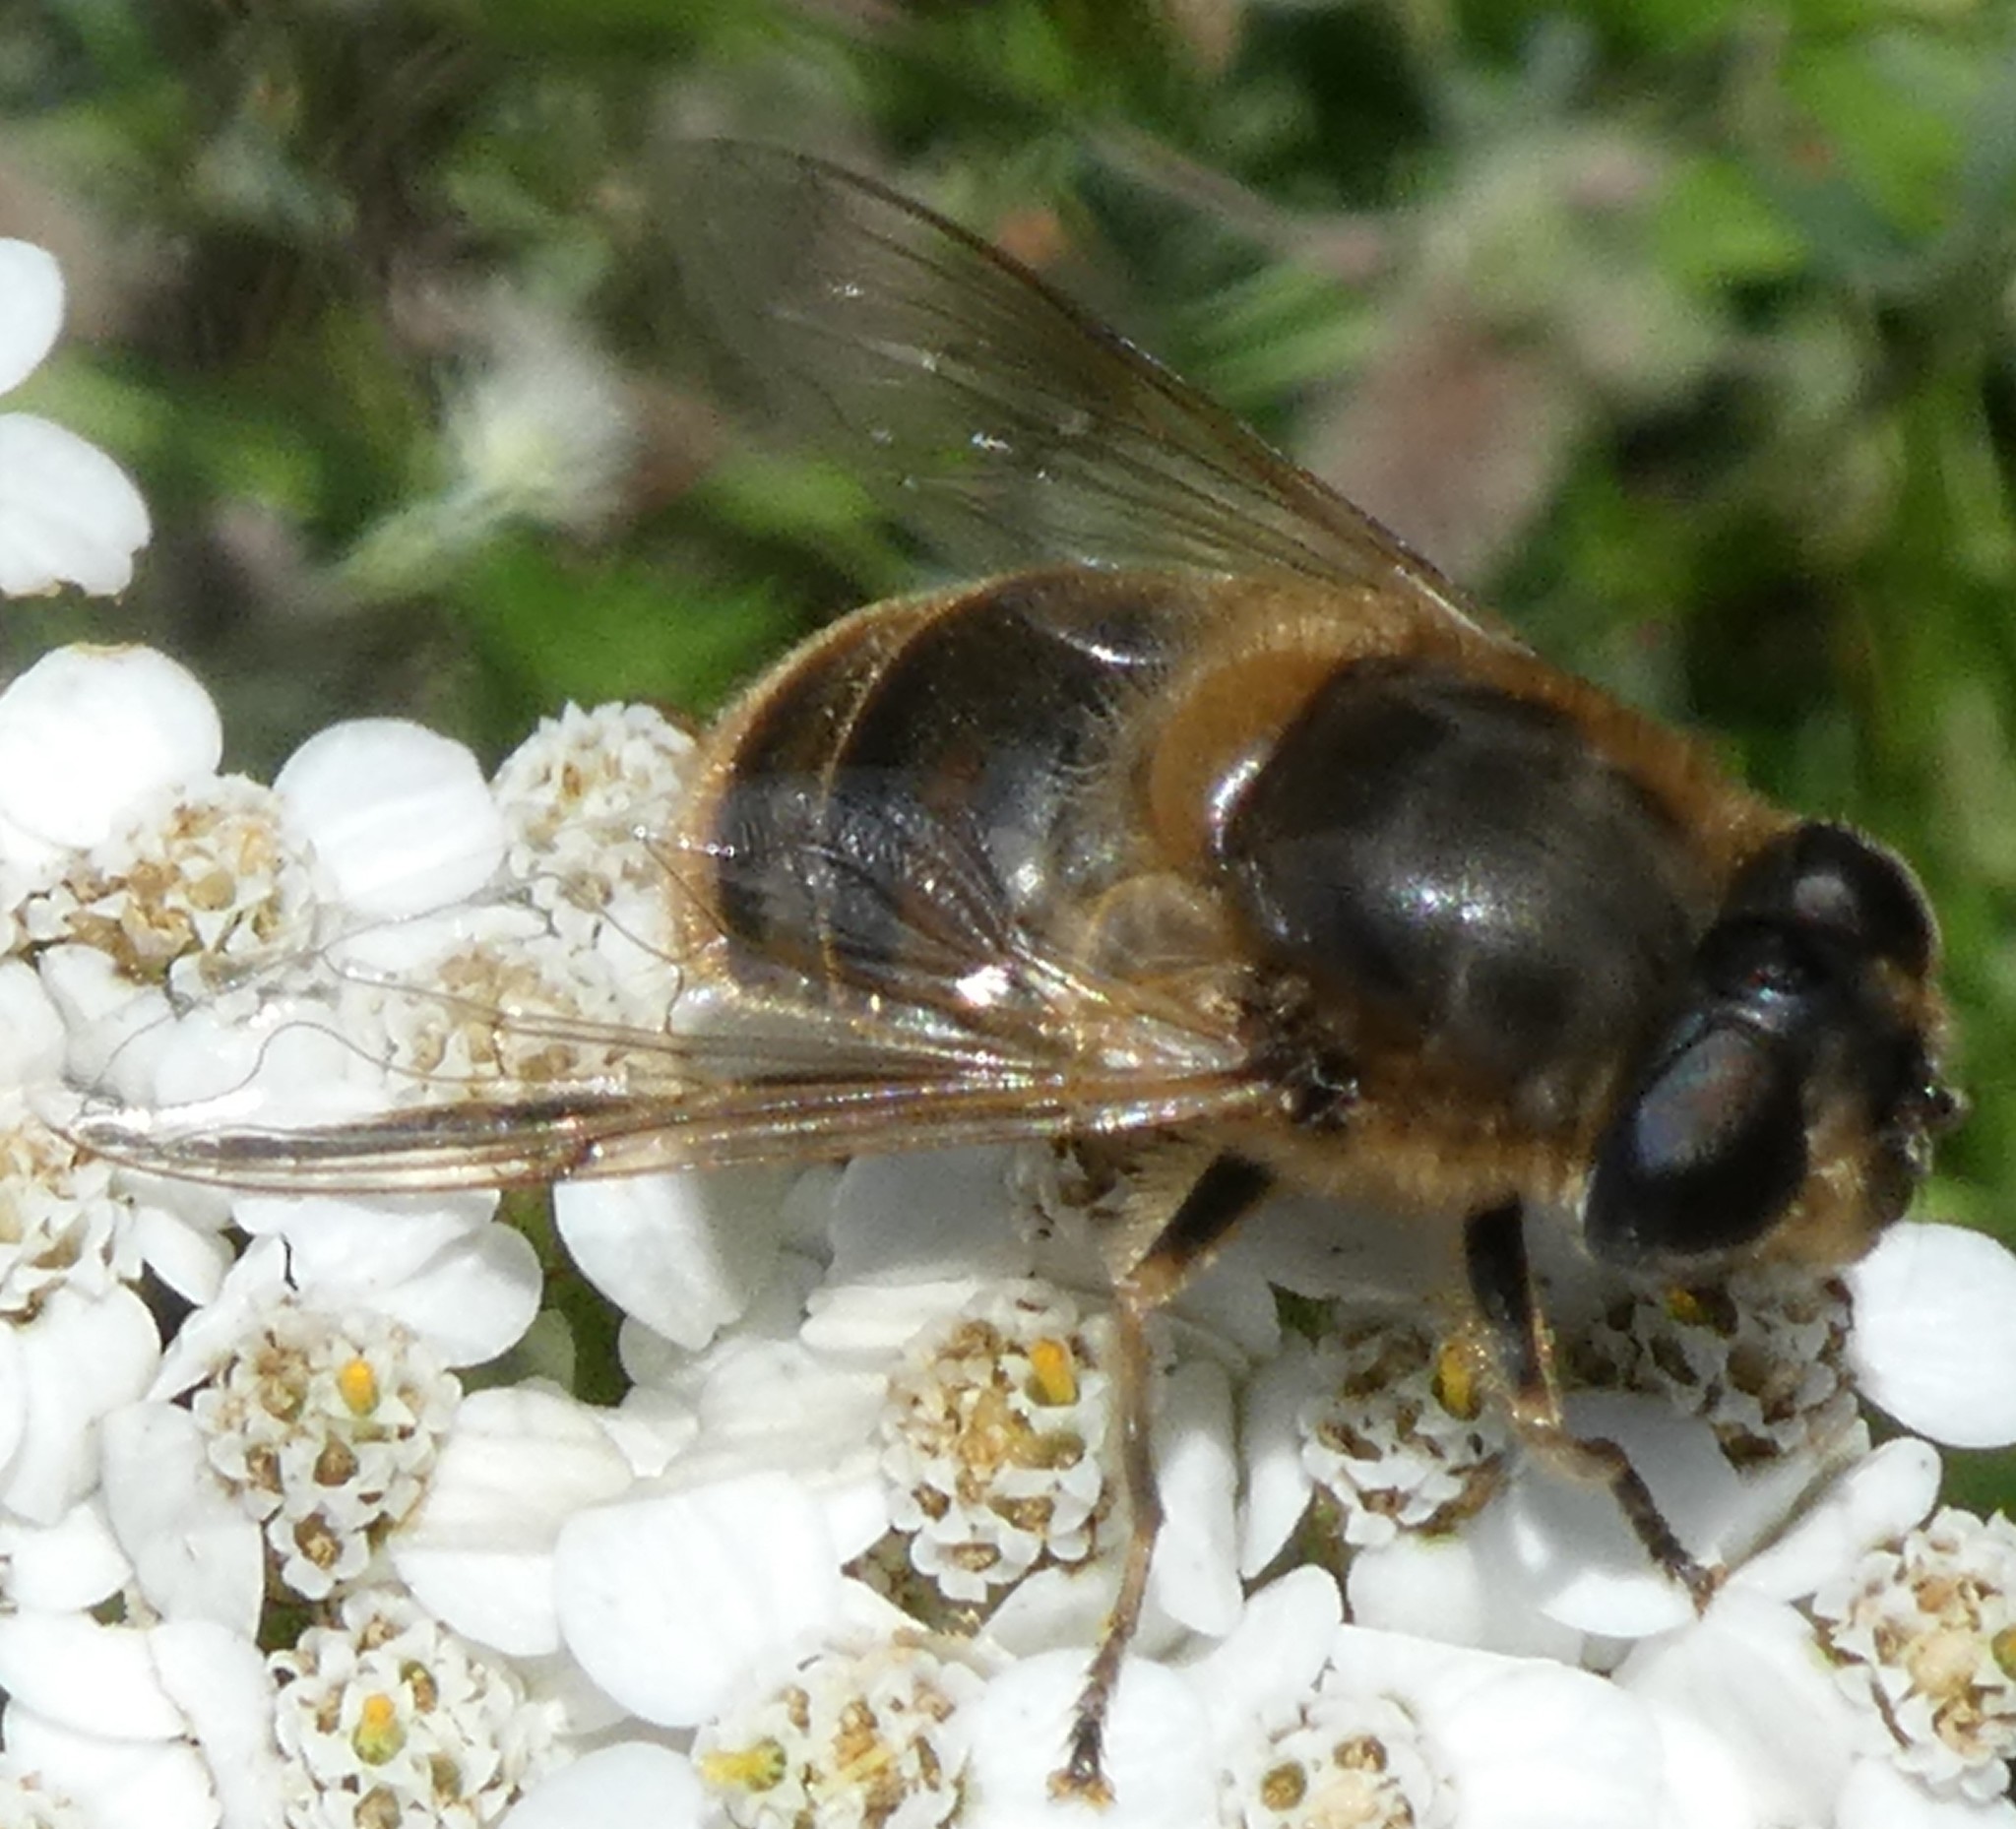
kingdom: Animalia
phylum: Arthropoda
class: Insecta
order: Diptera
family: Syrphidae
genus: Eristalis
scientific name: Eristalis tenax
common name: Drone fly
